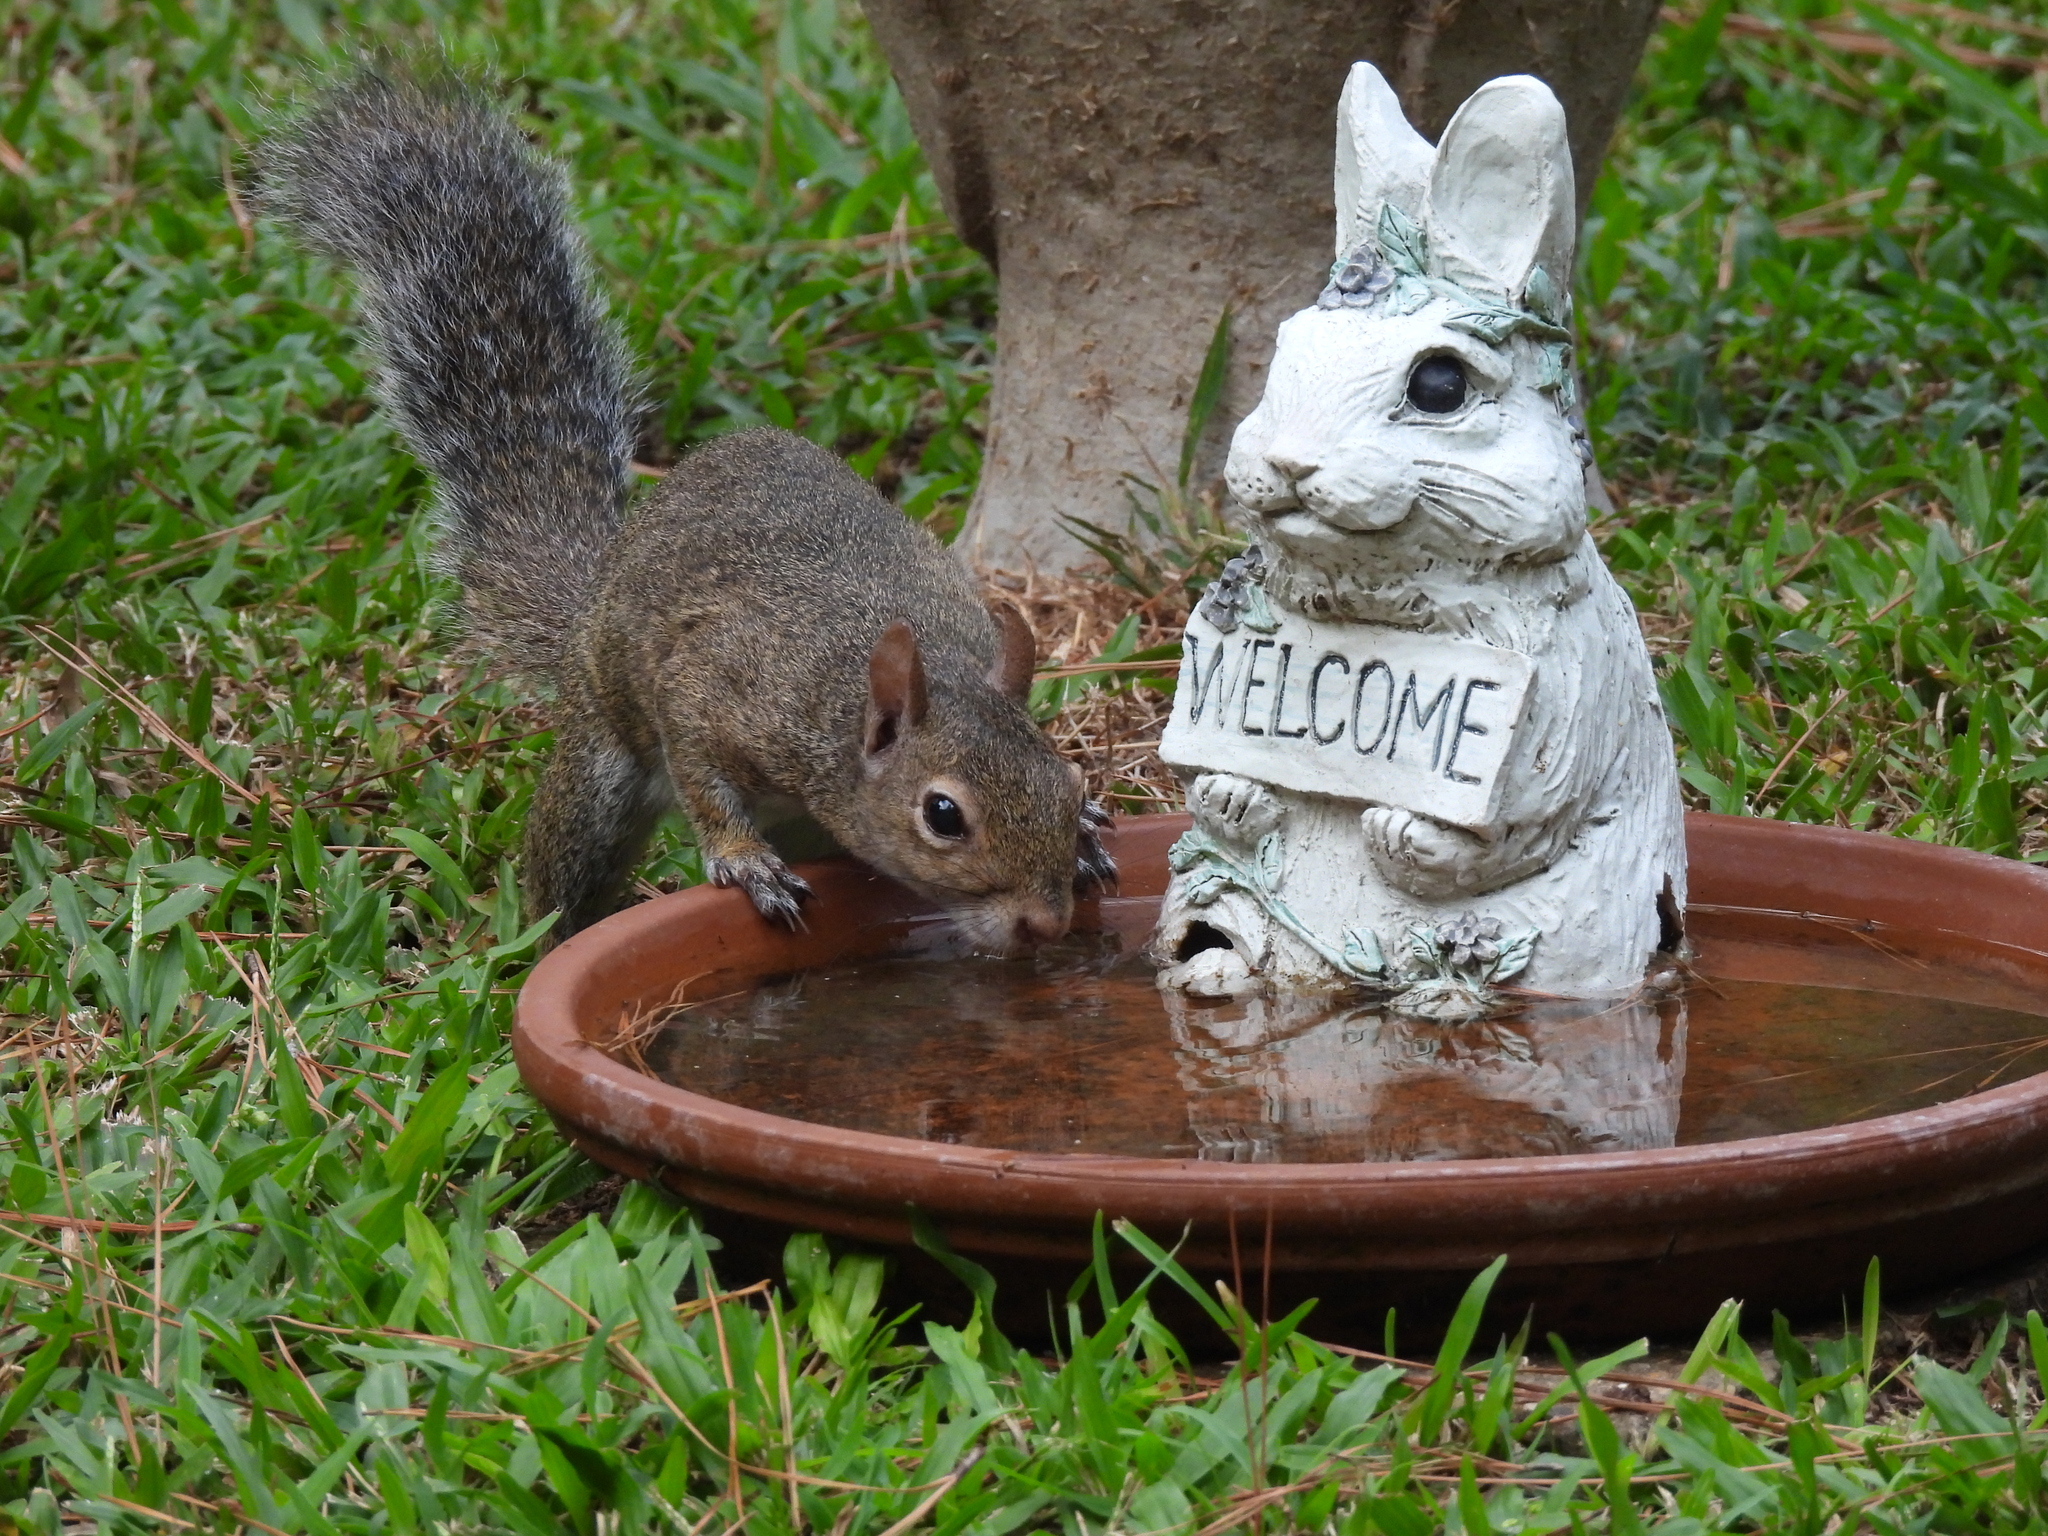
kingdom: Animalia
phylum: Chordata
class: Mammalia
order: Rodentia
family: Sciuridae
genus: Sciurus
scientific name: Sciurus carolinensis
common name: Eastern gray squirrel
